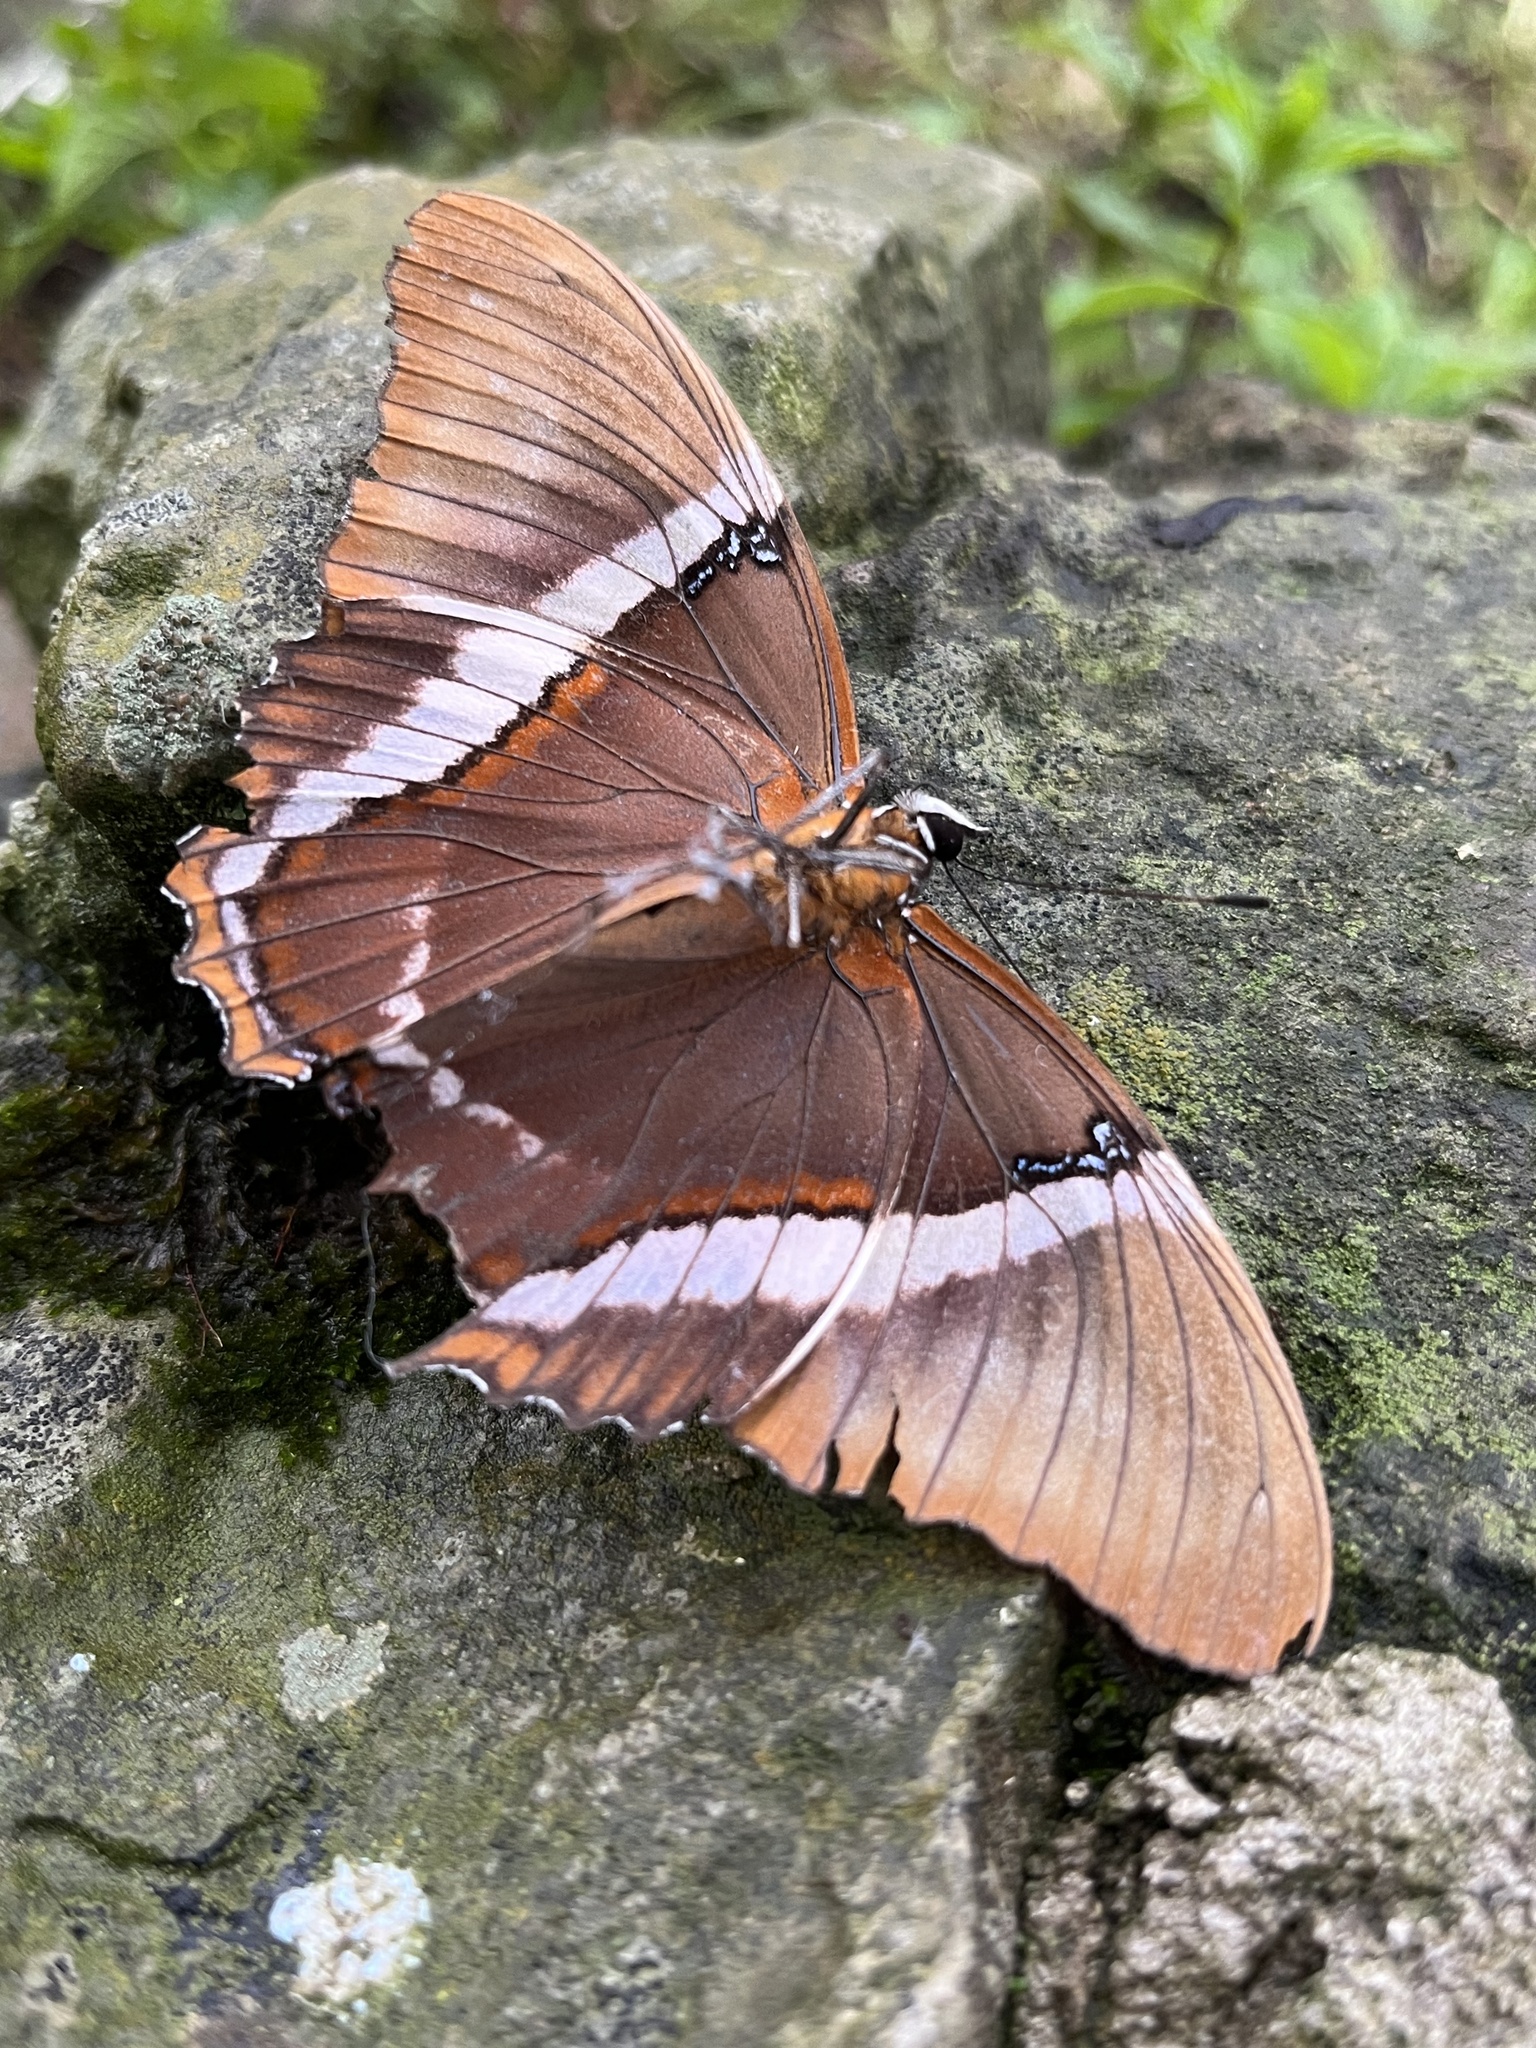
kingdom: Animalia
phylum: Arthropoda
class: Insecta
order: Lepidoptera
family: Nymphalidae
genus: Siproeta
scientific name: Siproeta epaphus
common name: Rusty-tipped page
